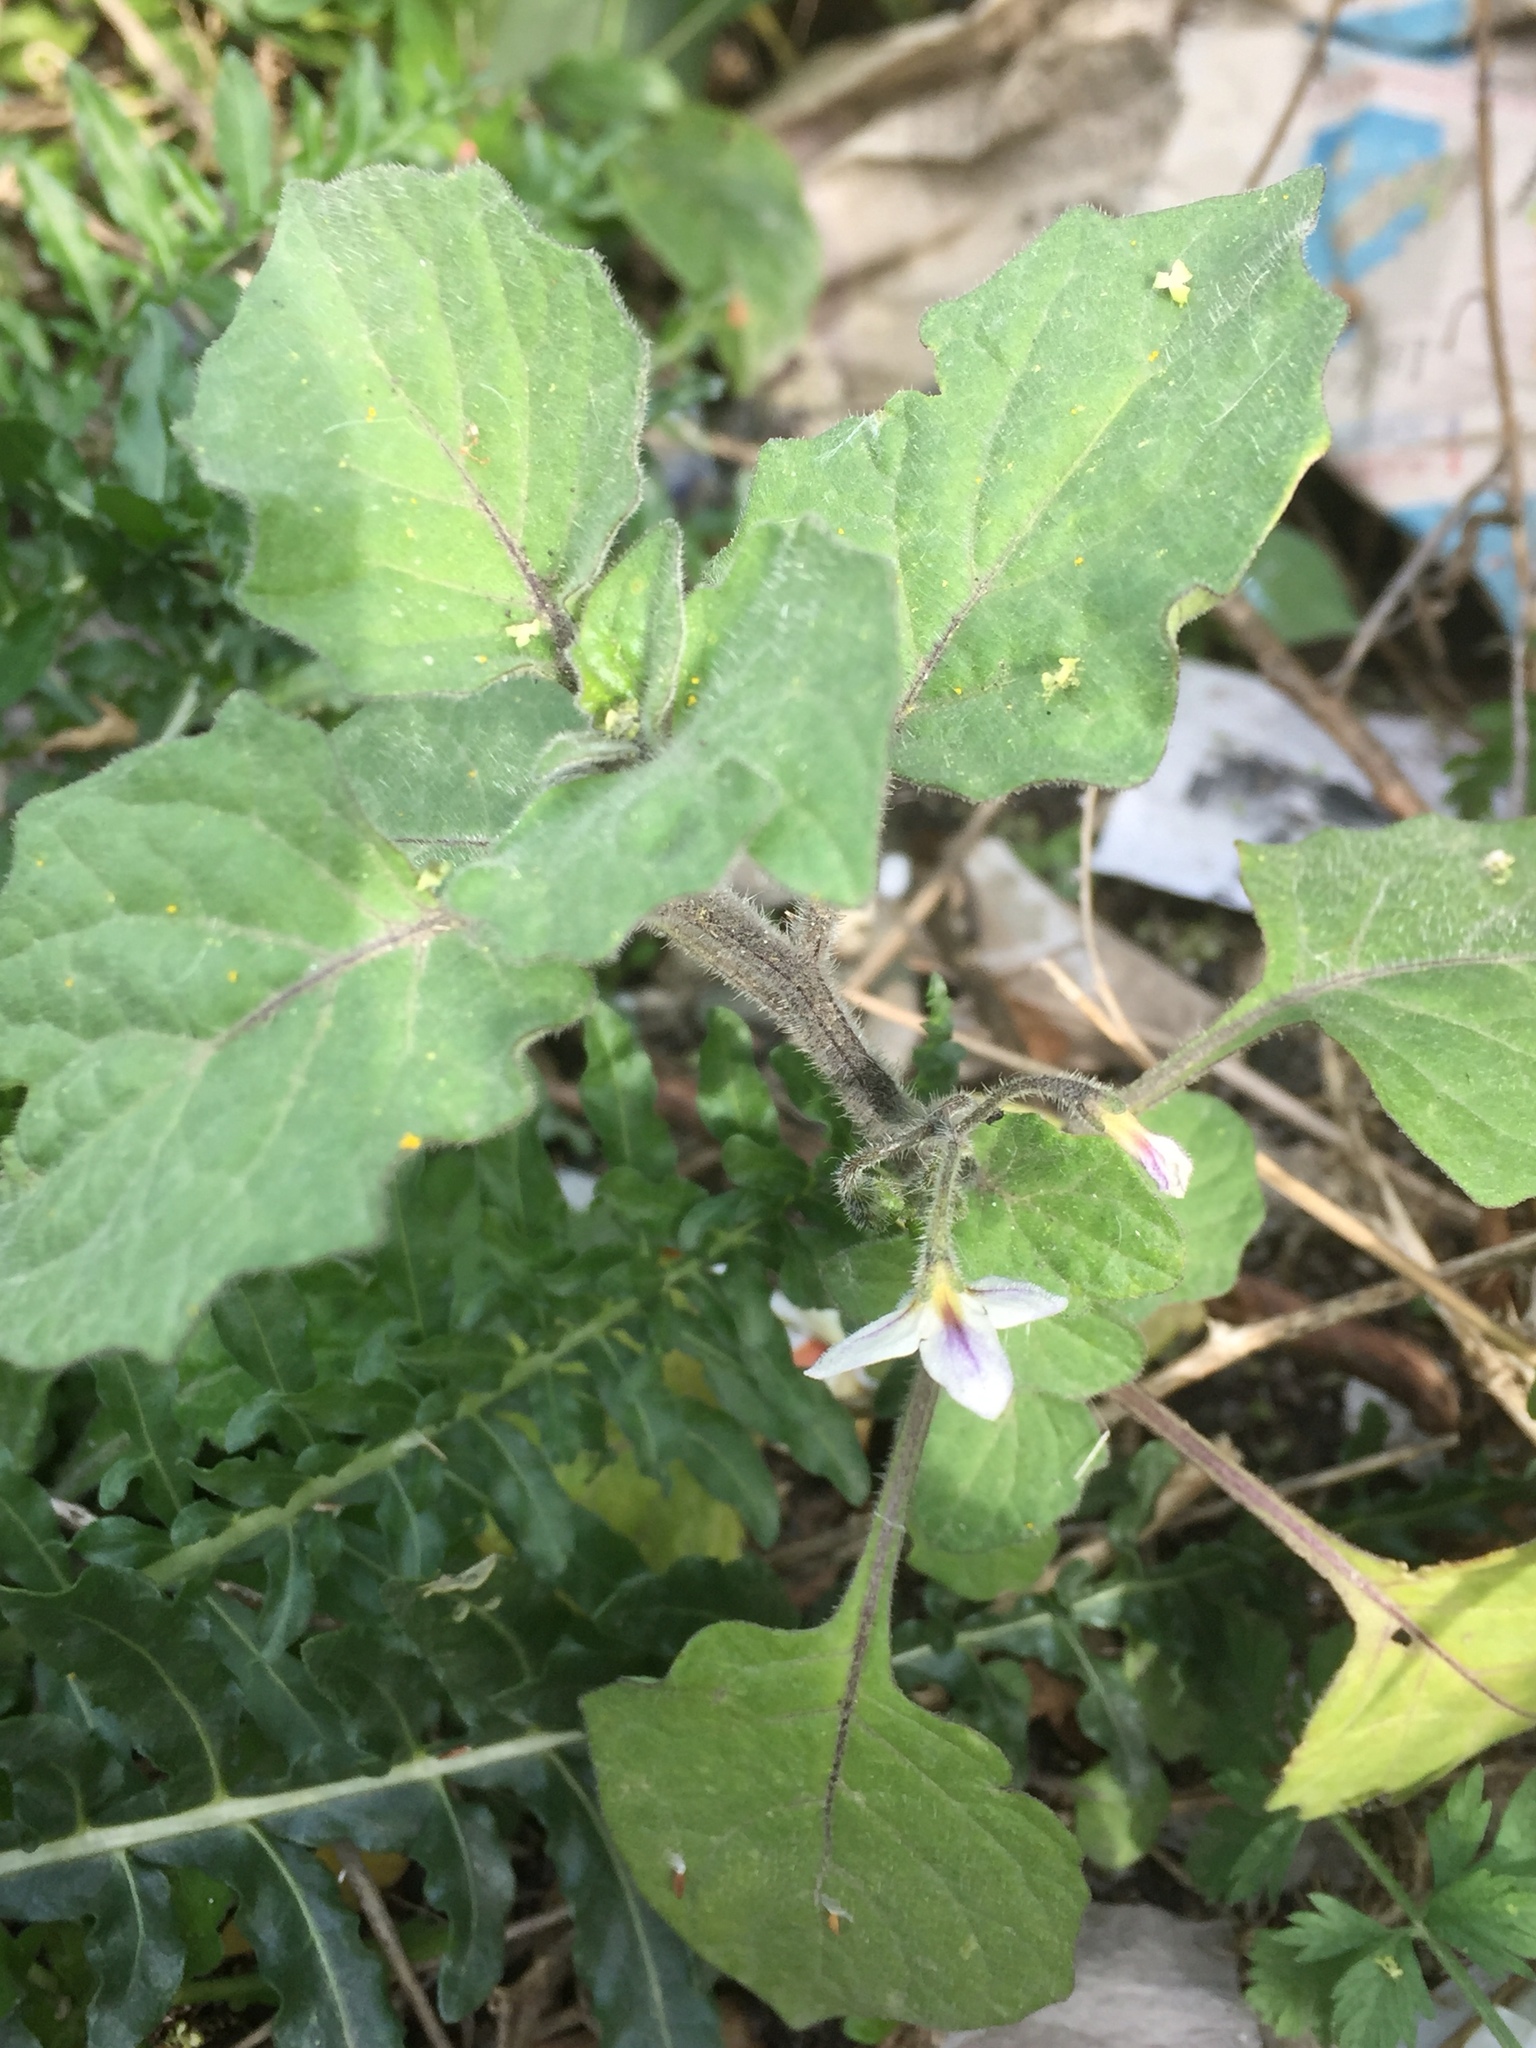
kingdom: Plantae
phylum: Tracheophyta
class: Magnoliopsida
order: Solanales
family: Solanaceae
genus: Solanum
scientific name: Solanum villosum
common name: Red nightshade
